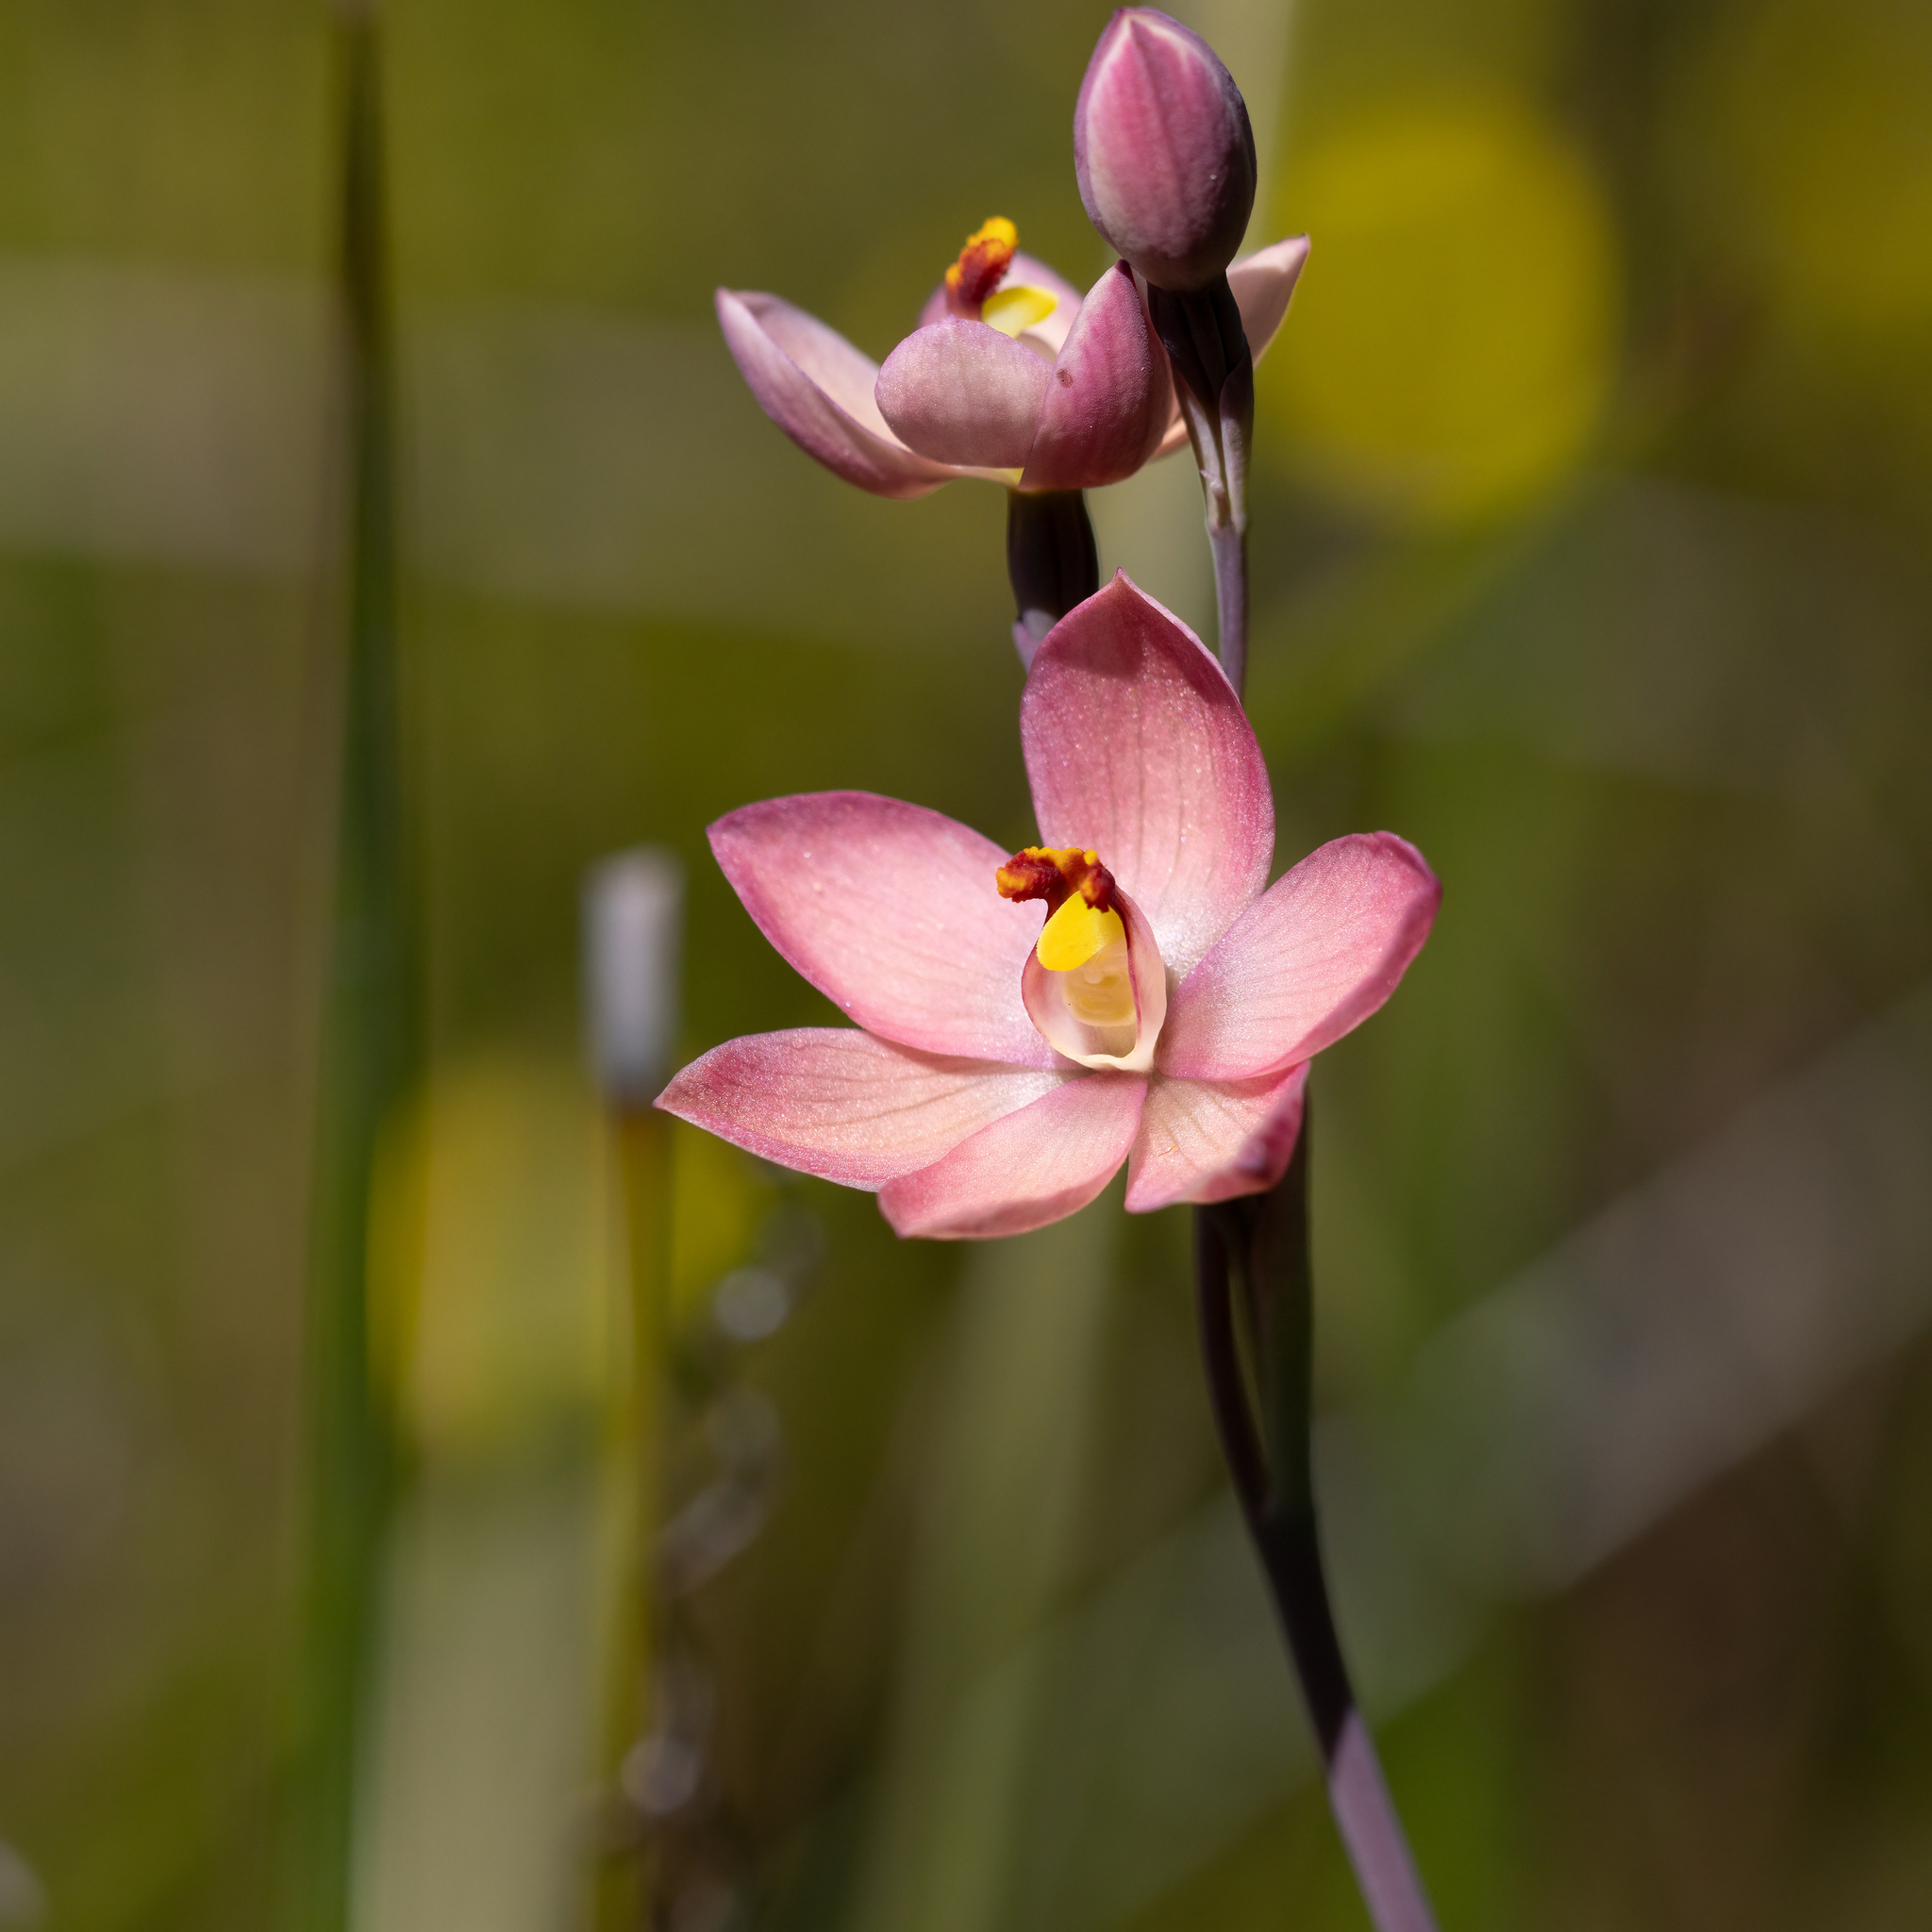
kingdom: Plantae
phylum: Tracheophyta
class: Liliopsida
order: Asparagales
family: Orchidaceae
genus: Thelymitra
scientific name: Thelymitra macmillanii
